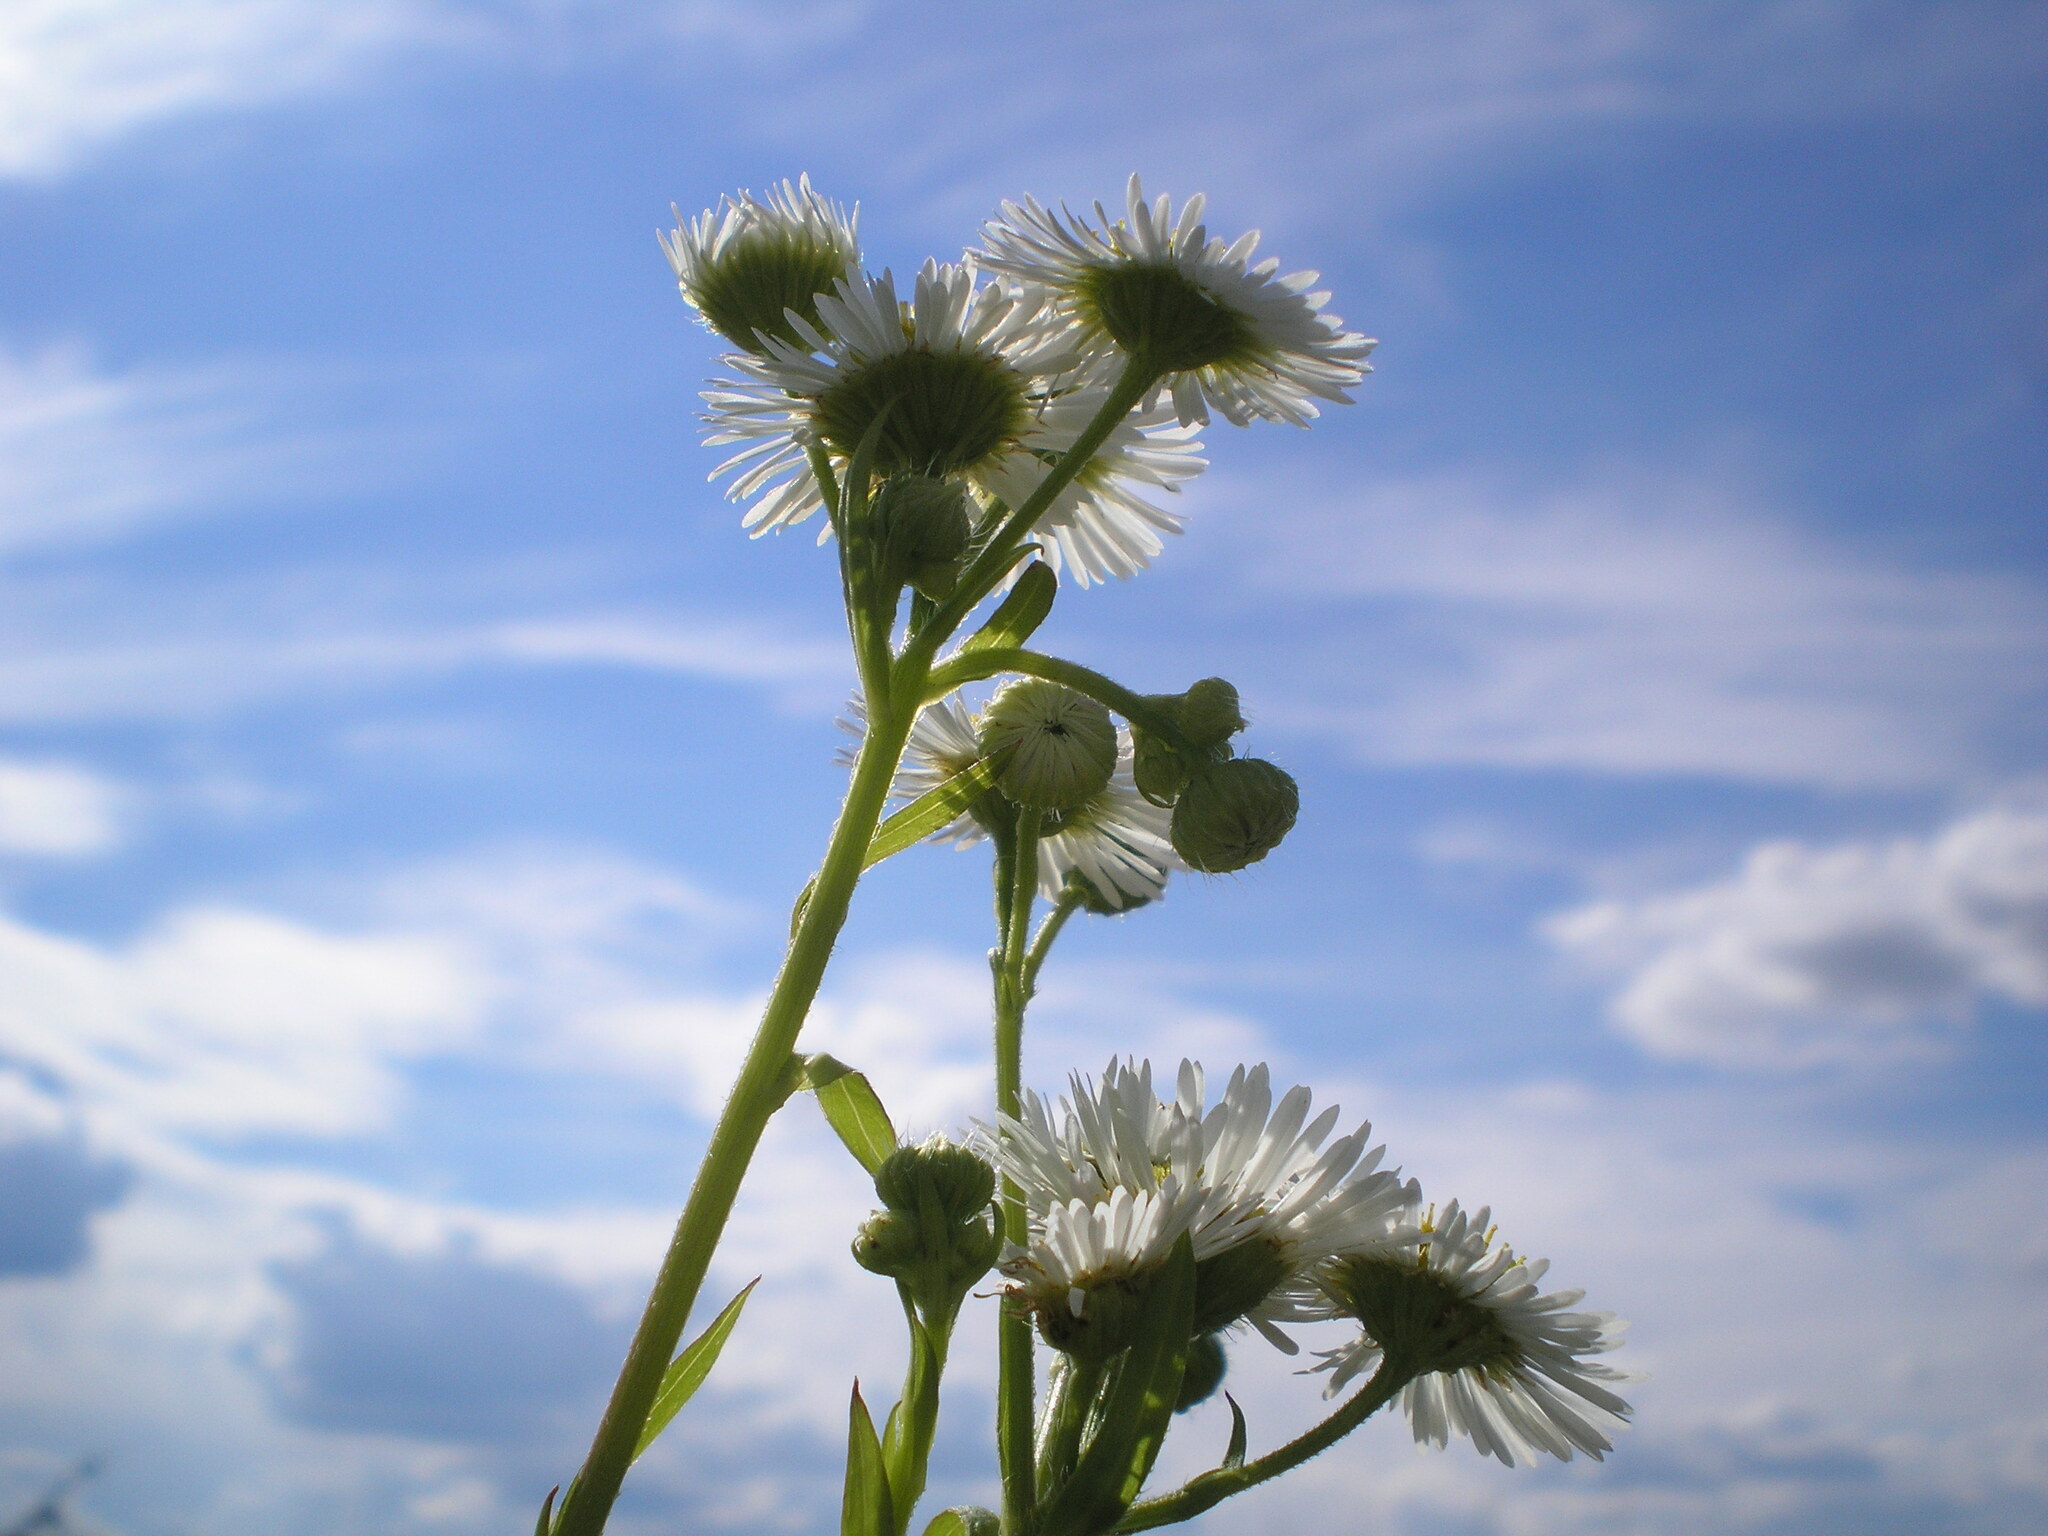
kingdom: Plantae
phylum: Tracheophyta
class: Magnoliopsida
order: Asterales
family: Asteraceae
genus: Erigeron
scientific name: Erigeron annuus
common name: Tall fleabane
